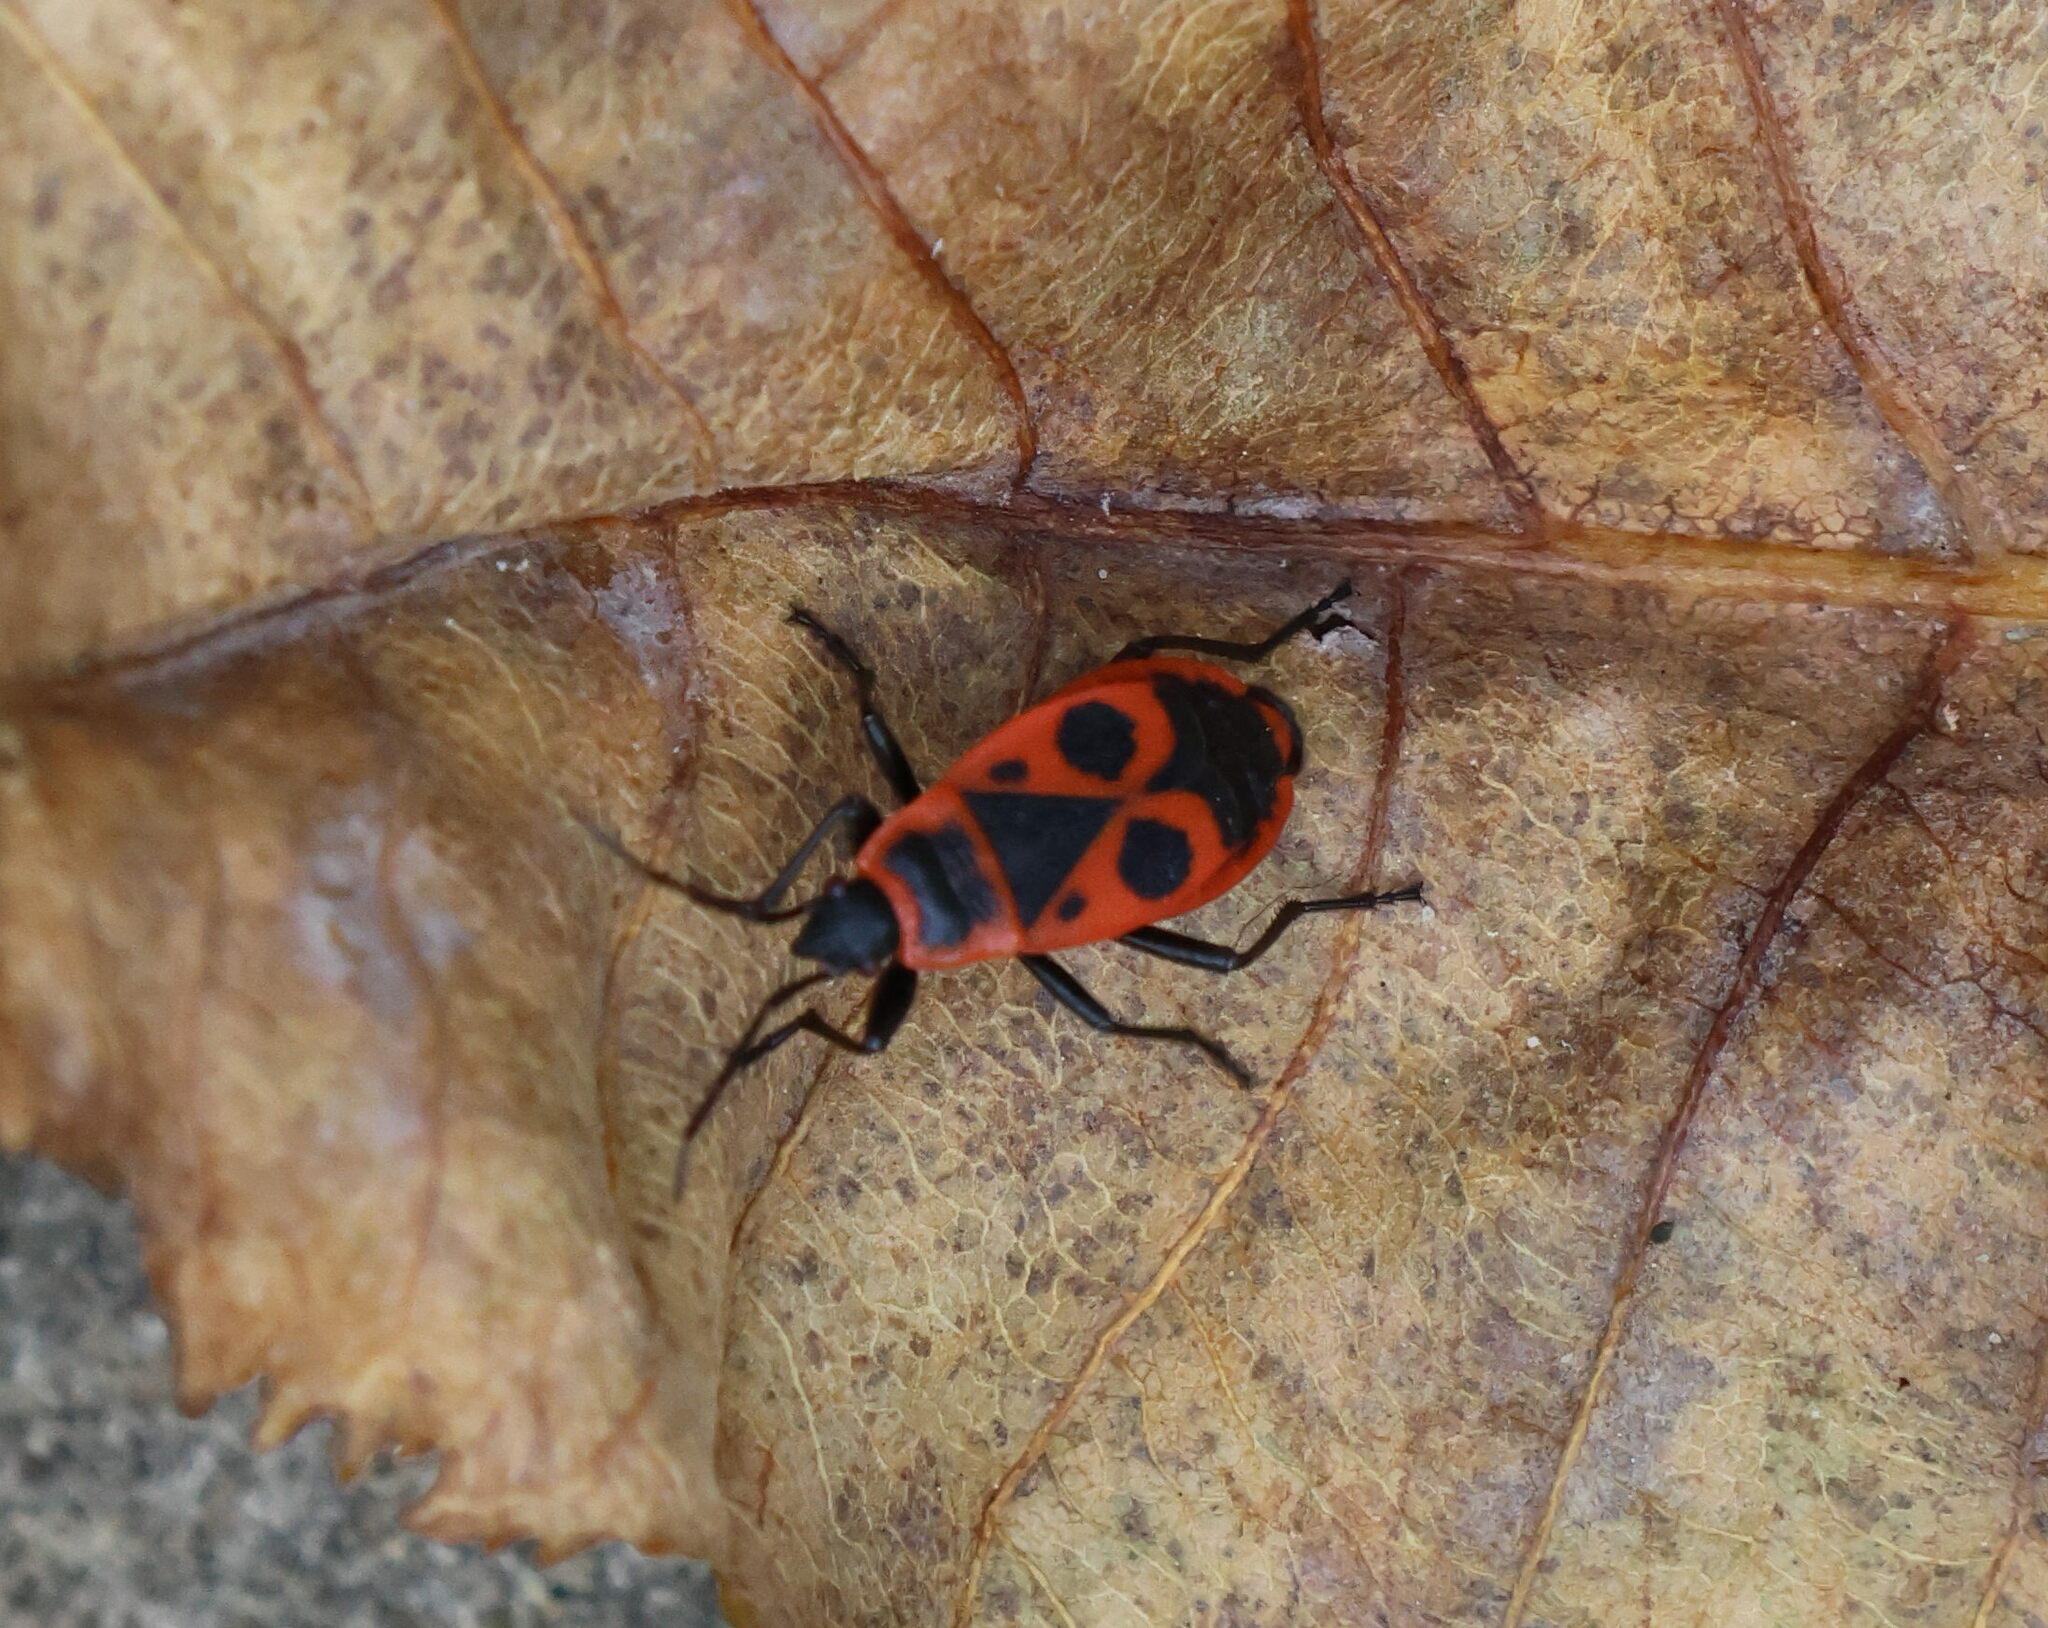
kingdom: Animalia
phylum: Arthropoda
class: Insecta
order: Hemiptera
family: Pyrrhocoridae
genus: Pyrrhocoris
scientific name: Pyrrhocoris apterus
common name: Firebug
